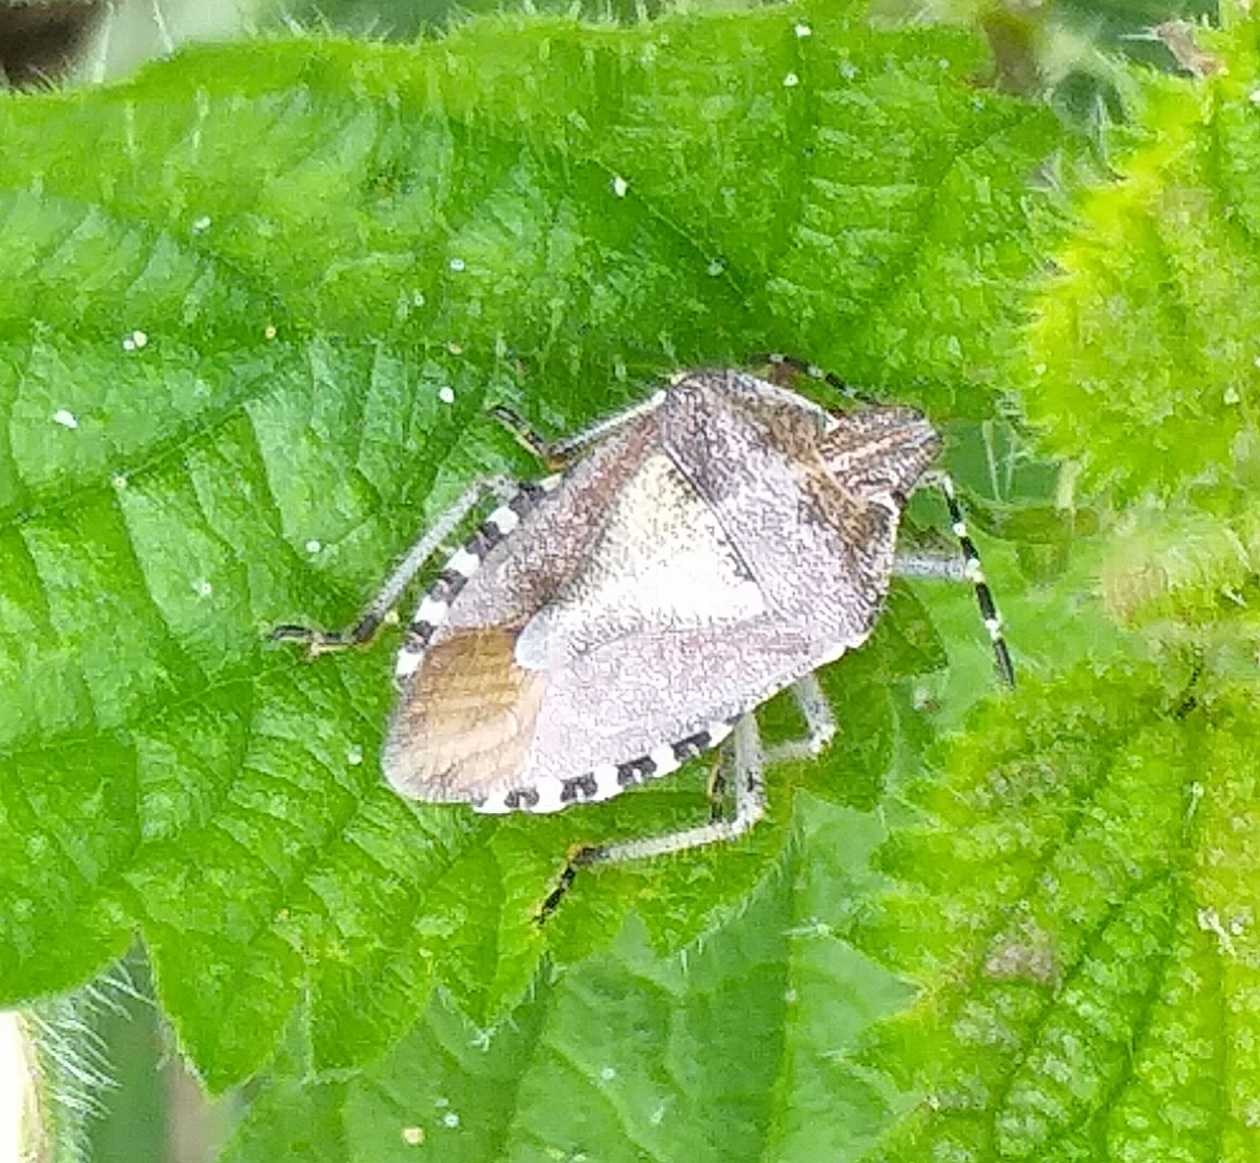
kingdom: Animalia
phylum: Arthropoda
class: Insecta
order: Hemiptera
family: Pentatomidae
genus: Dolycoris
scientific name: Dolycoris baccarum
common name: Sloe bug
